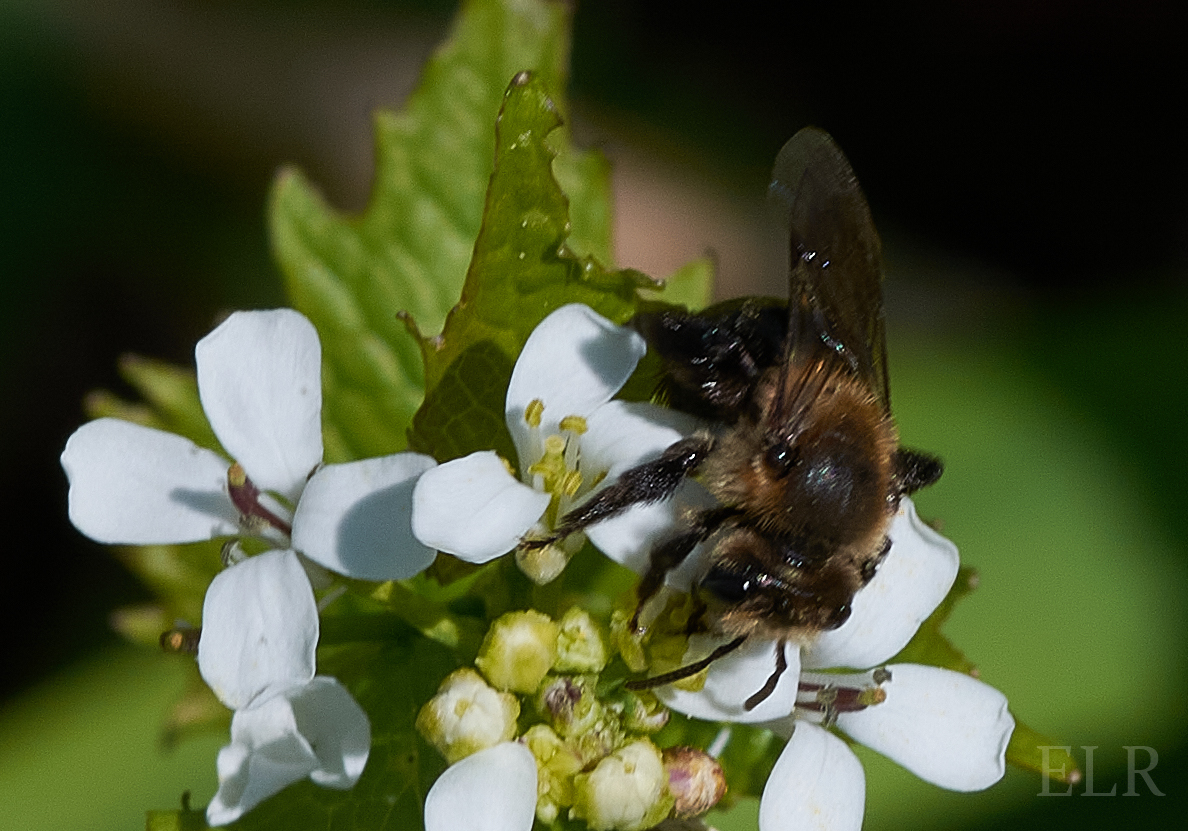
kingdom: Animalia
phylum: Arthropoda
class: Insecta
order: Hymenoptera
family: Andrenidae
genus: Andrena
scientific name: Andrena vicina
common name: Neighborly mining bee
